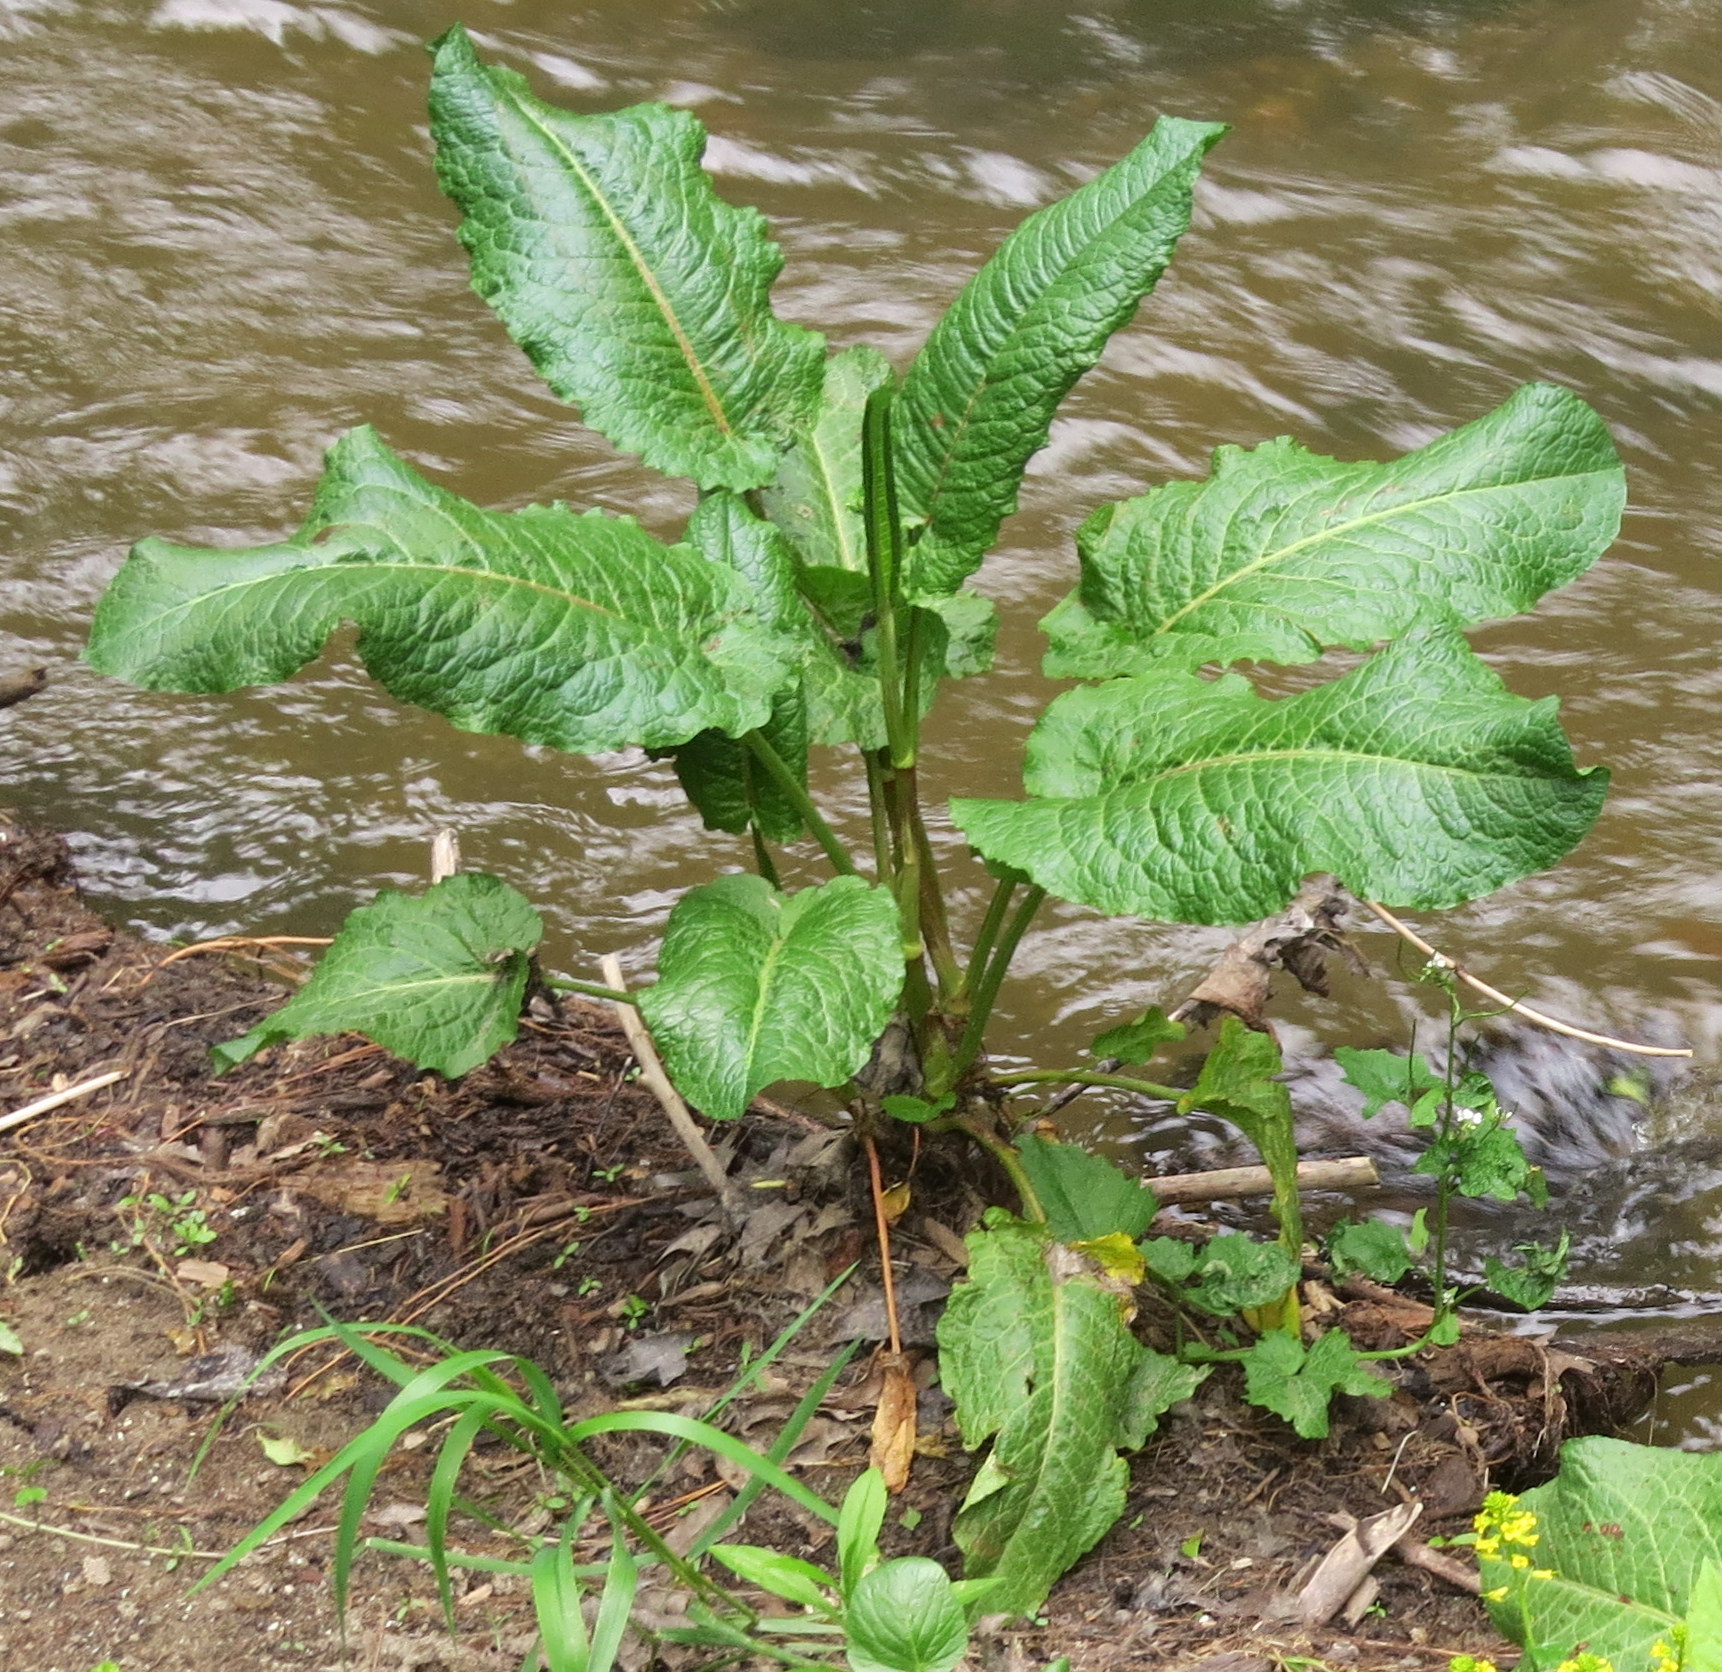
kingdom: Plantae
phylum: Tracheophyta
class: Magnoliopsida
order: Caryophyllales
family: Polygonaceae
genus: Rumex
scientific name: Rumex obtusifolius
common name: Bitter dock
